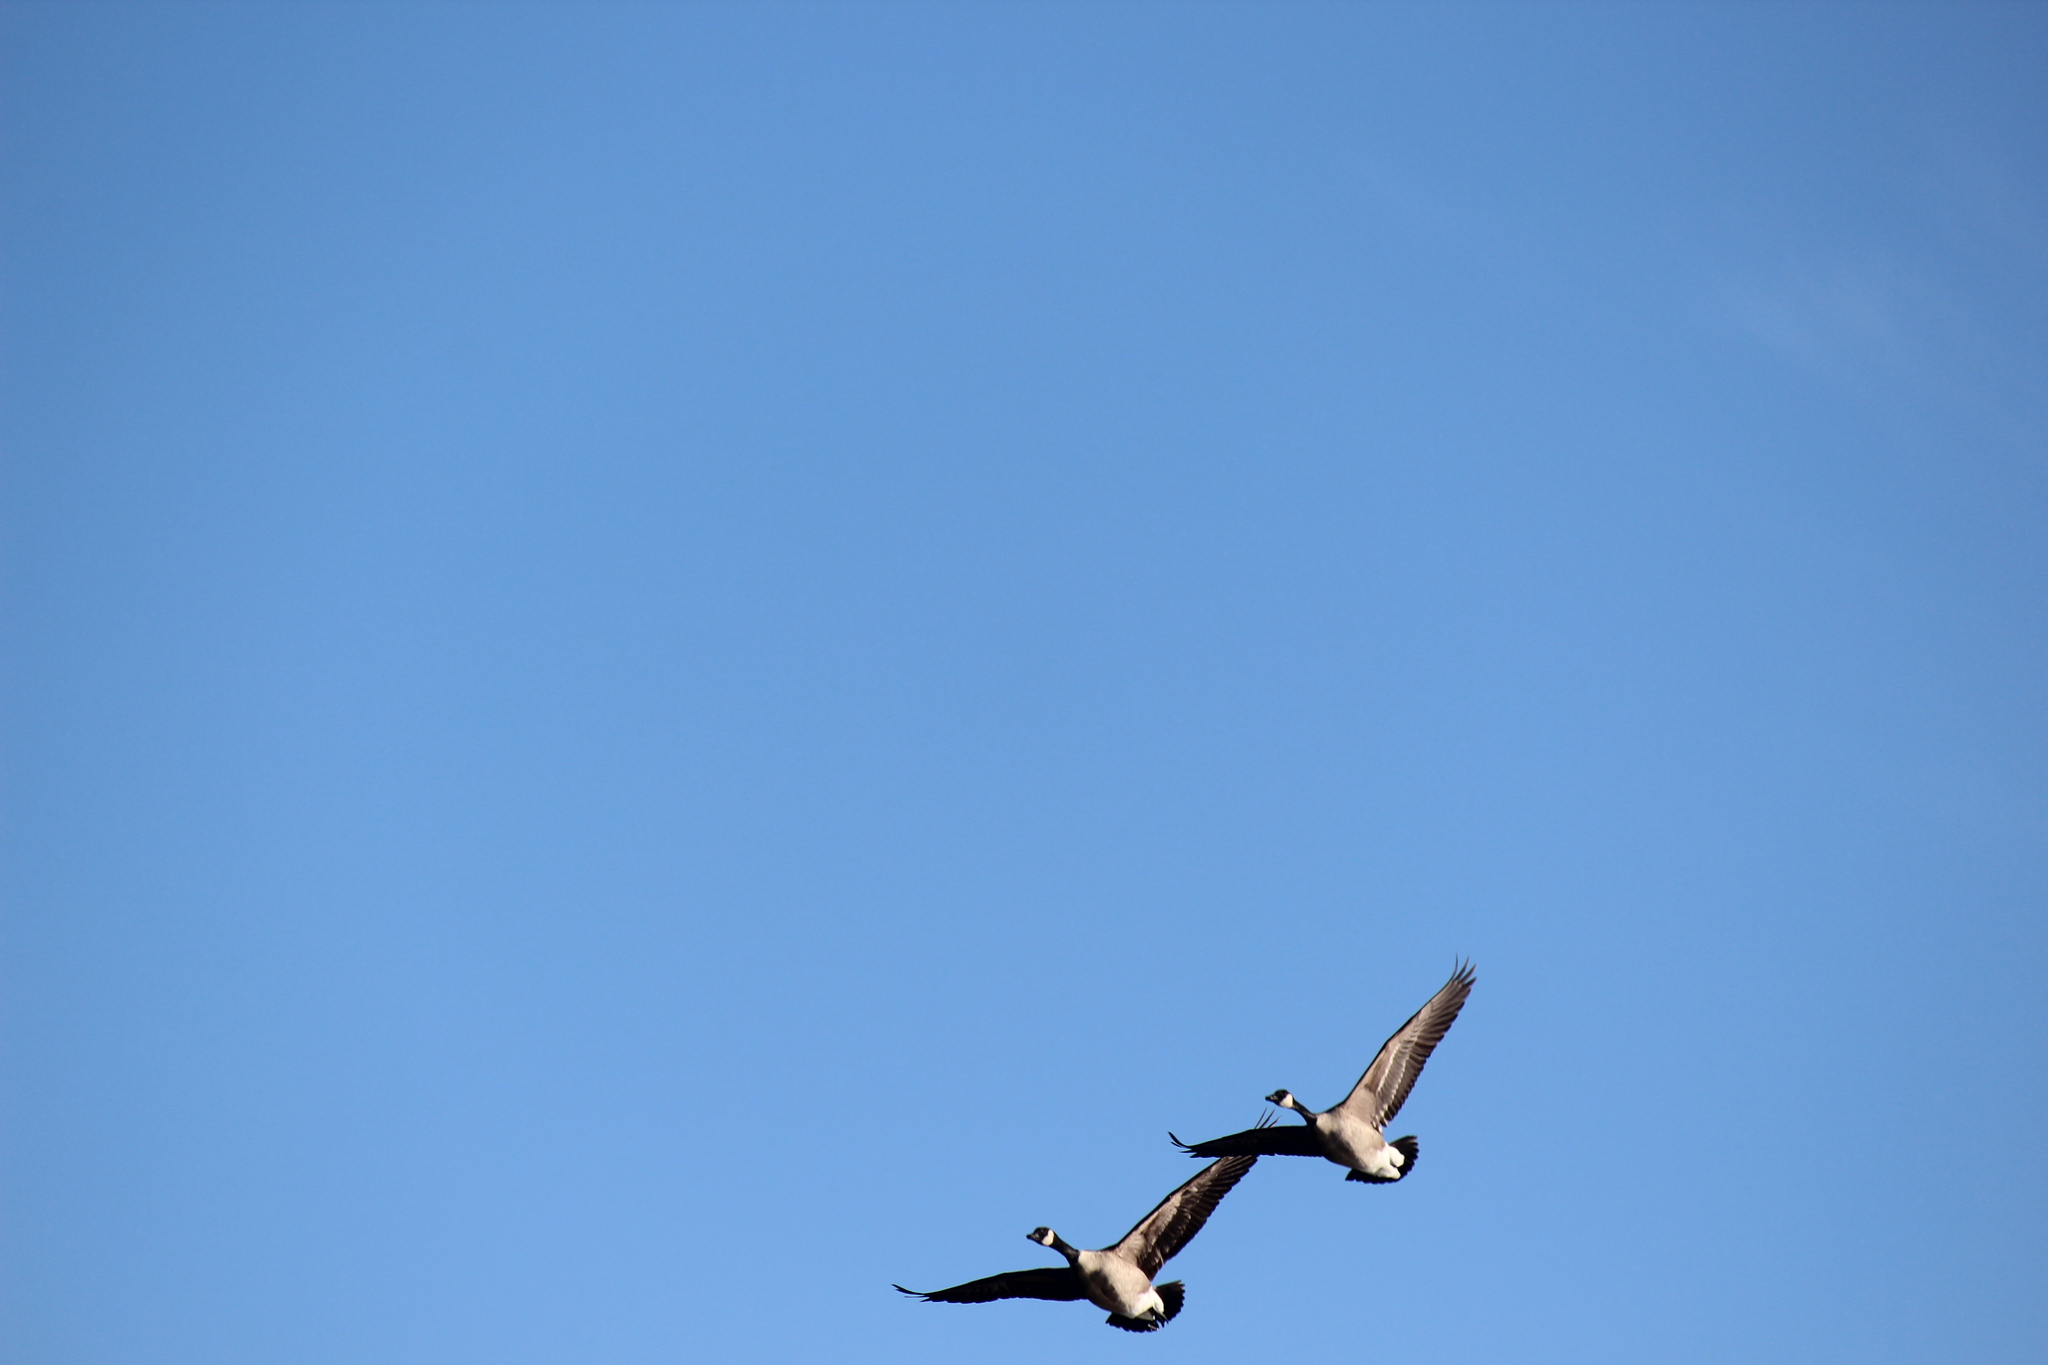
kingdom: Animalia
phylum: Chordata
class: Aves
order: Anseriformes
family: Anatidae
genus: Branta
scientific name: Branta canadensis
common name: Canada goose
